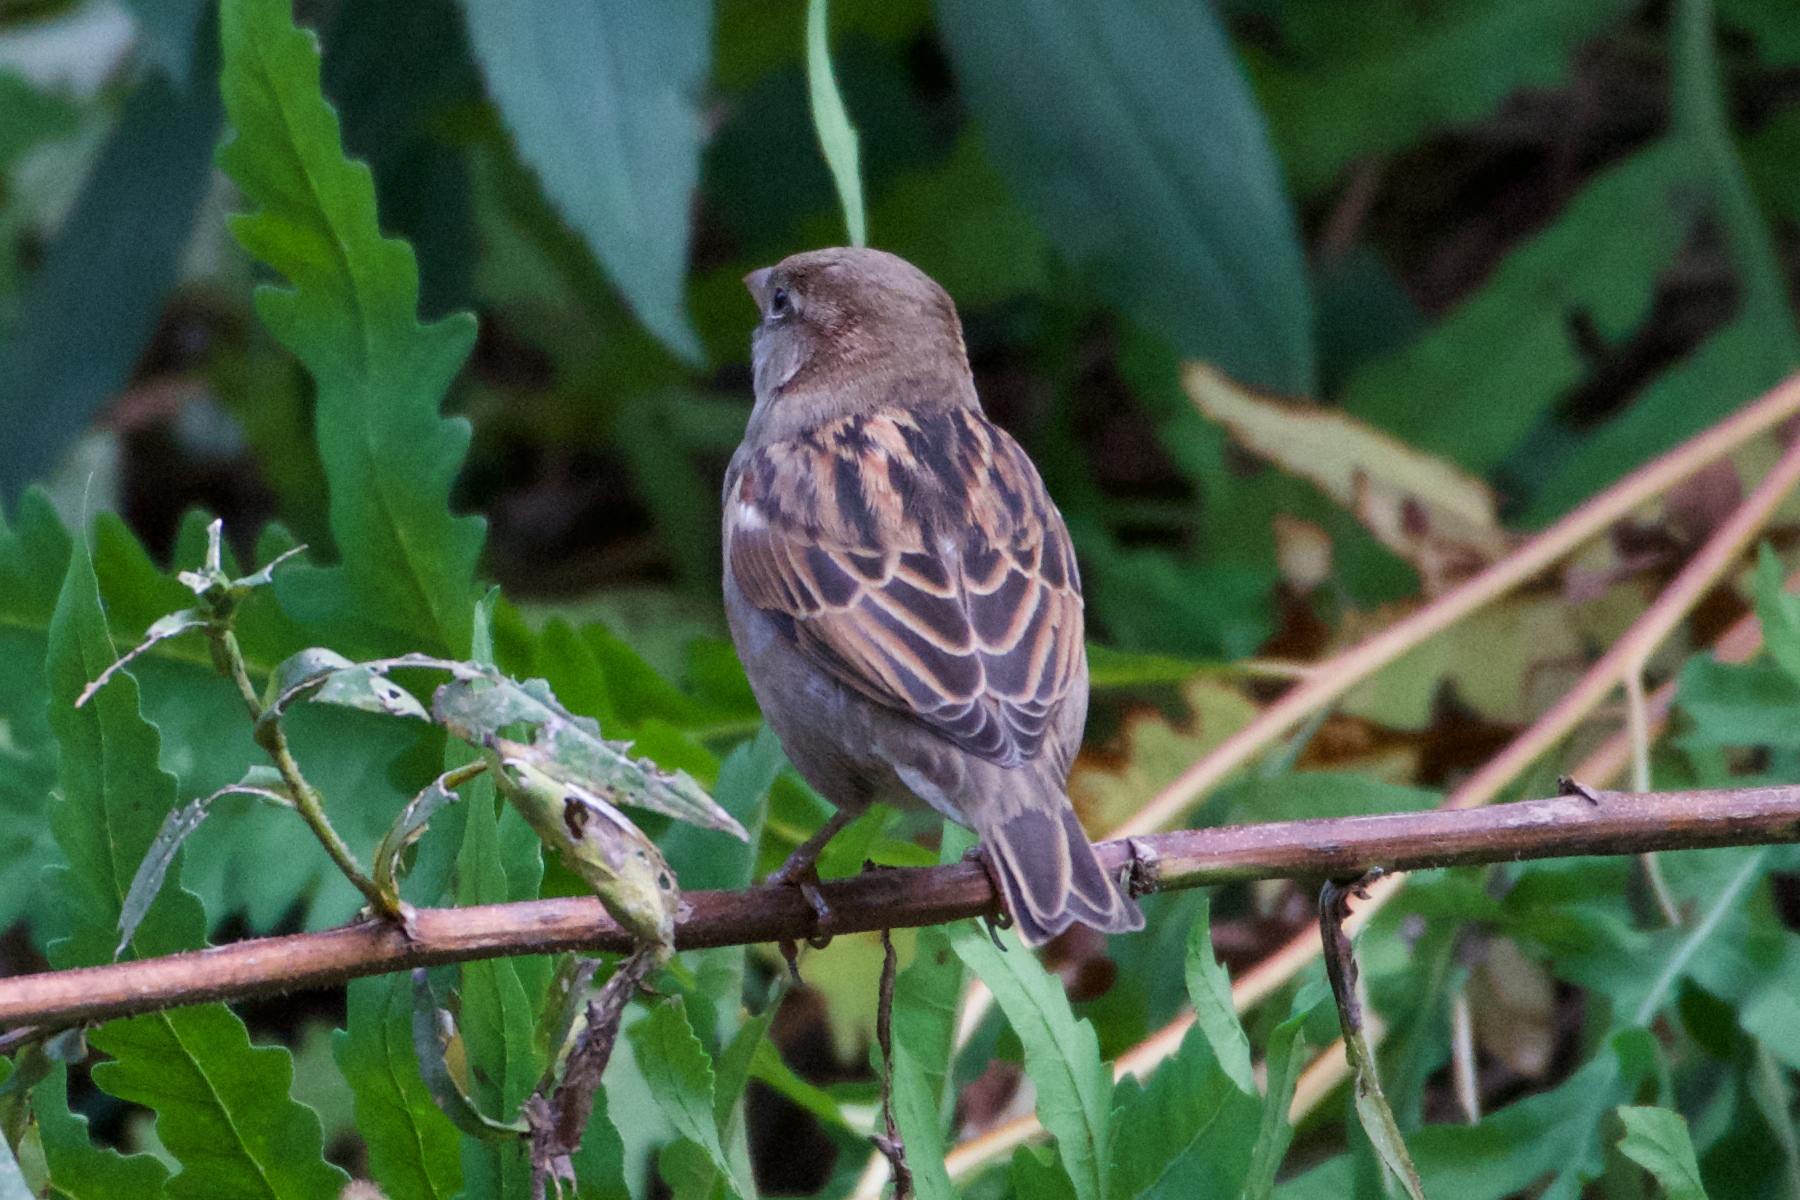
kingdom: Animalia
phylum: Chordata
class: Aves
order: Passeriformes
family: Passeridae
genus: Passer
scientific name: Passer domesticus
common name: House sparrow
